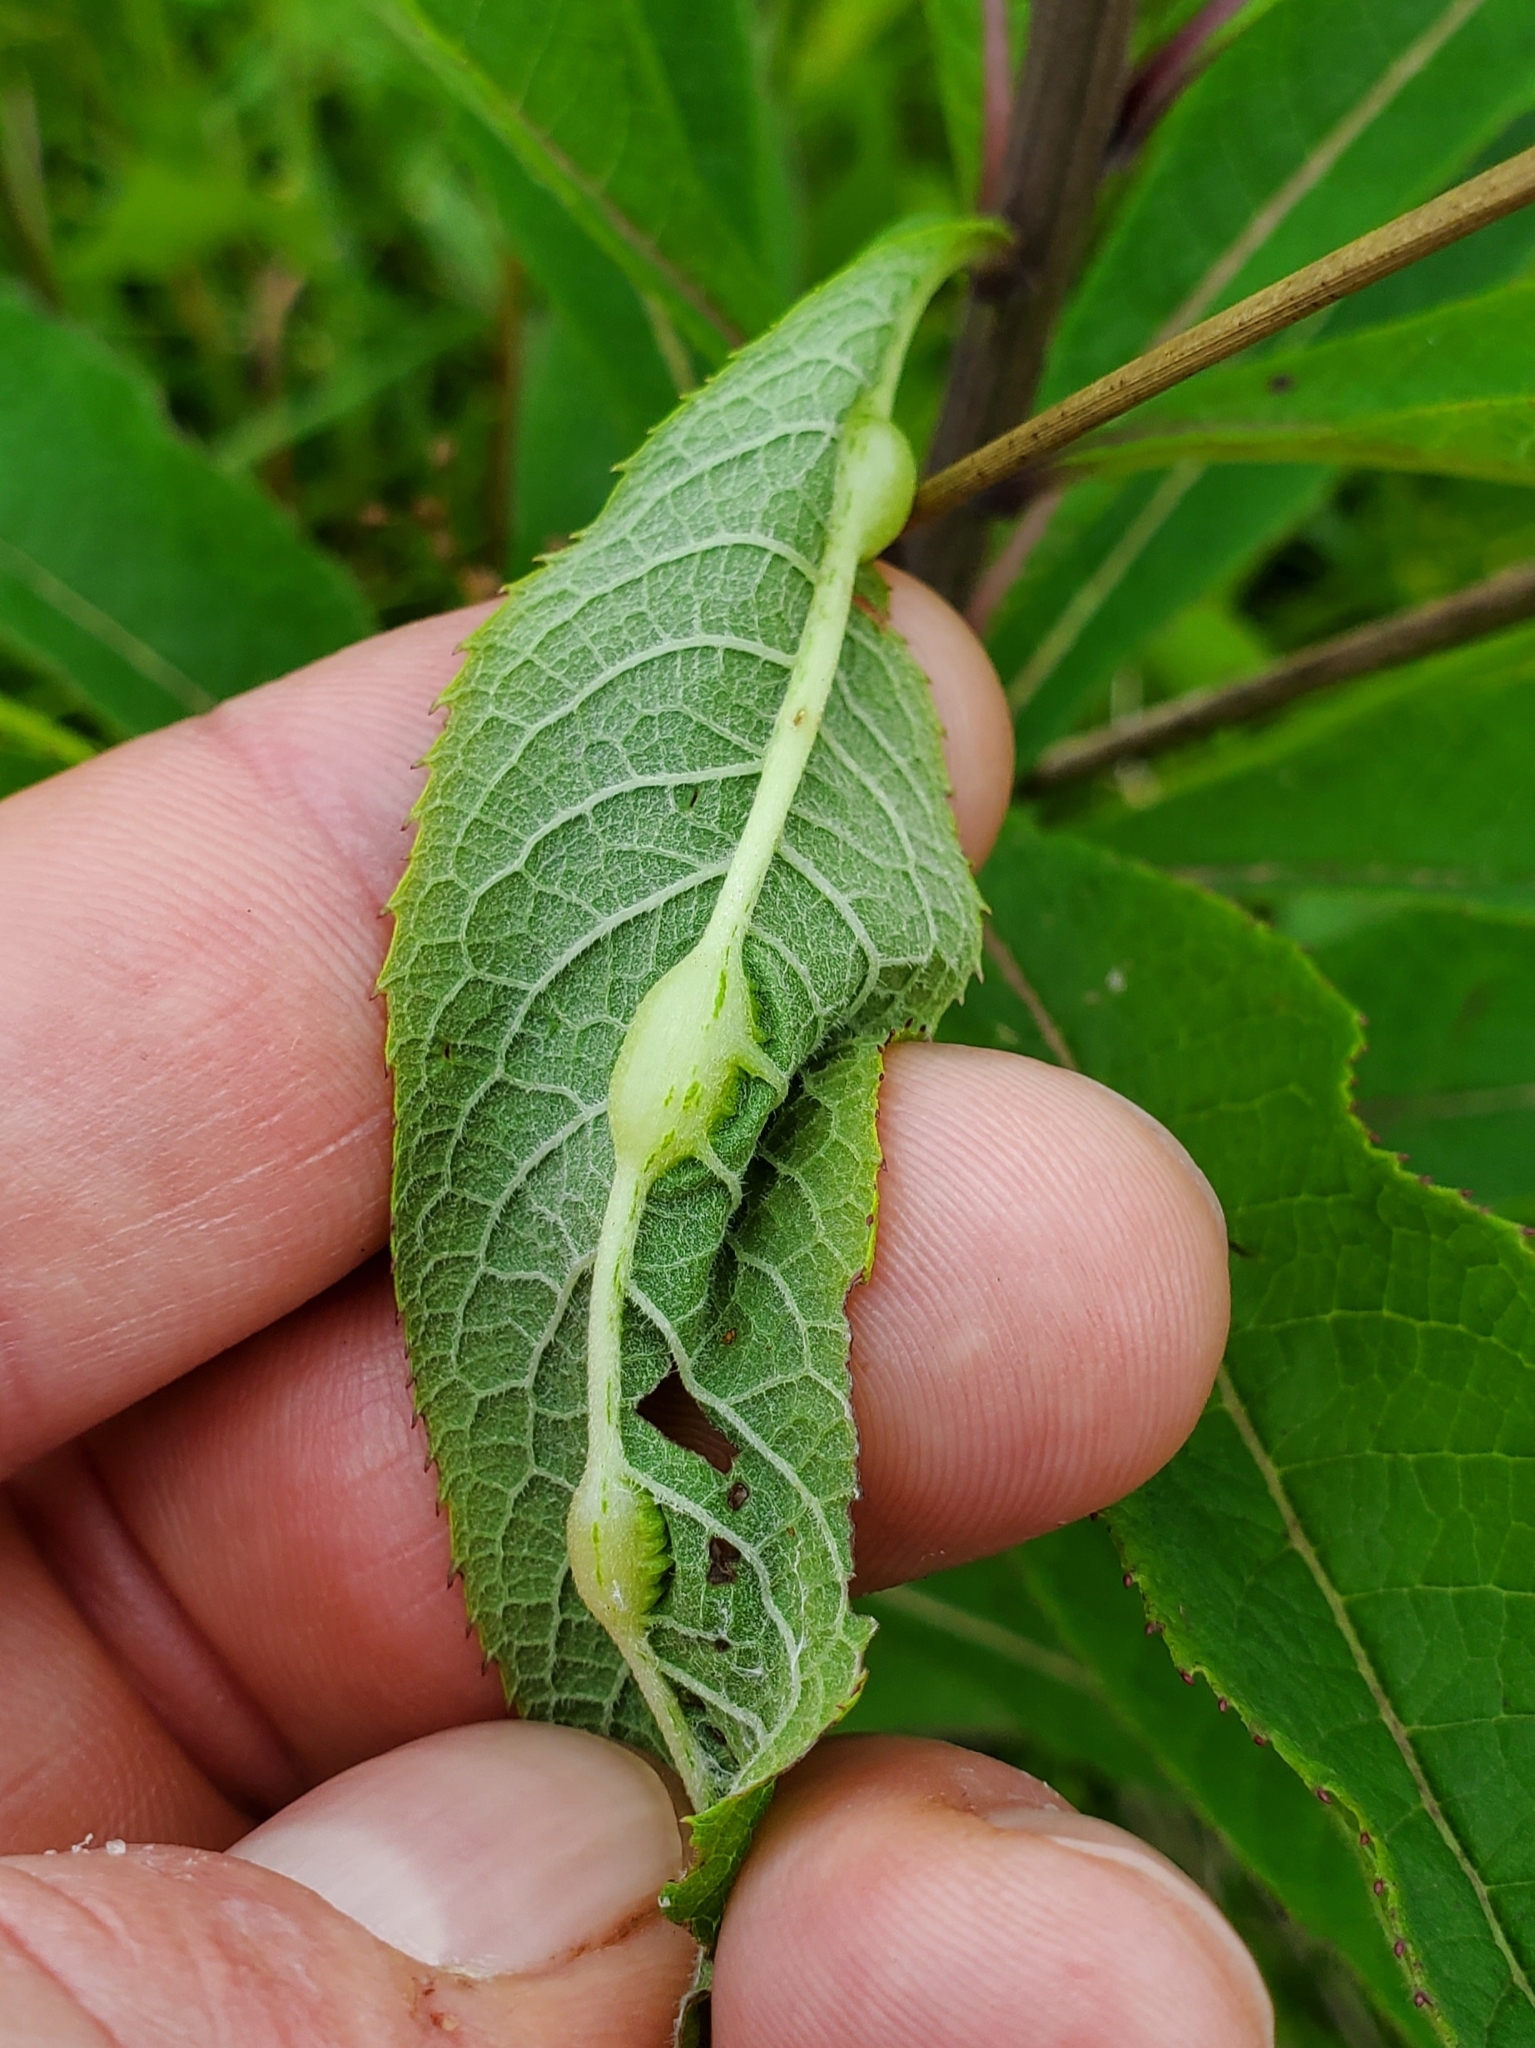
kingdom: Animalia
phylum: Arthropoda
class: Insecta
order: Diptera
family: Cecidomyiidae
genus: Neolasioptera
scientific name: Neolasioptera vernoniae
